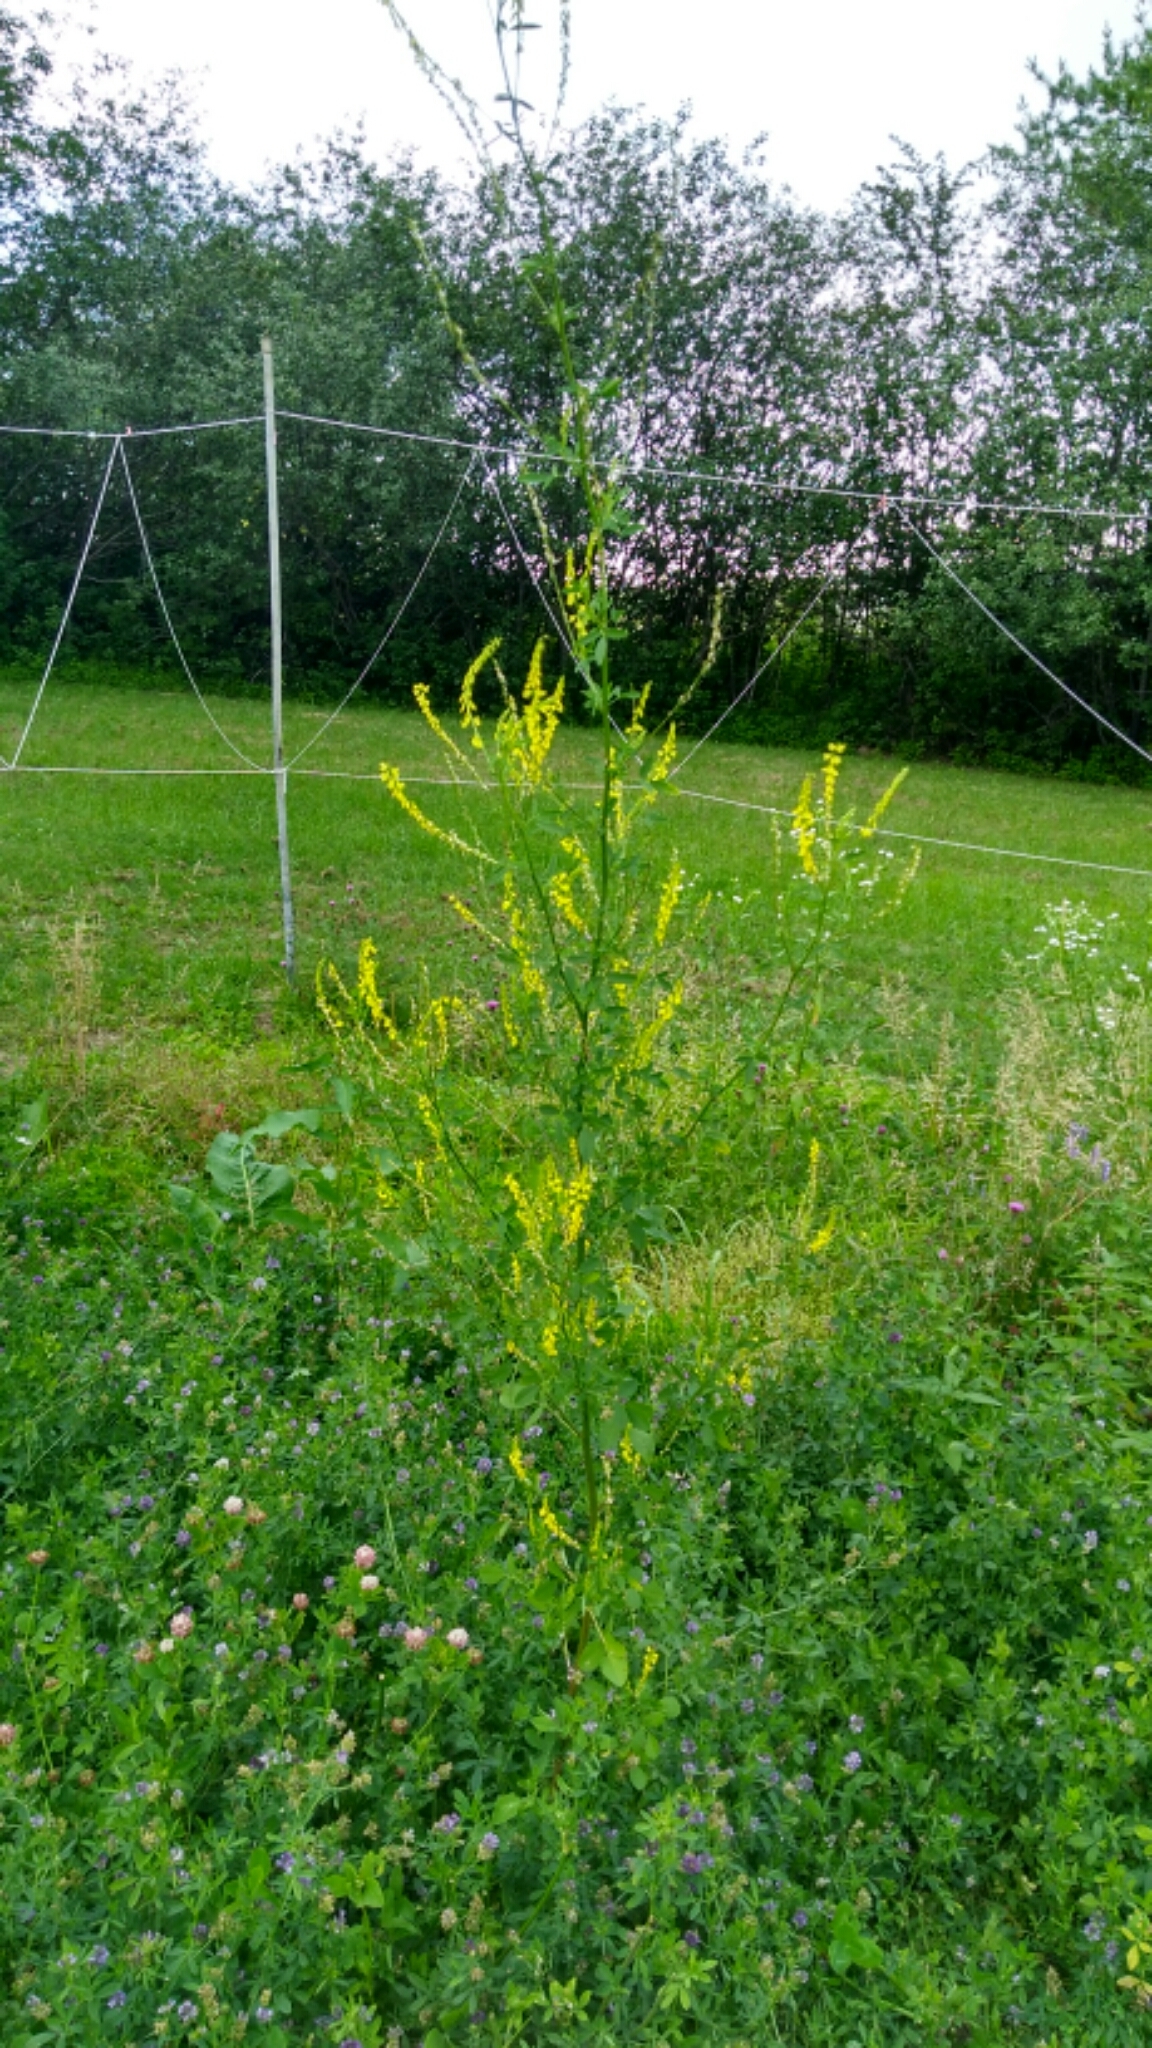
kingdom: Plantae
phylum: Tracheophyta
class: Magnoliopsida
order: Fabales
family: Fabaceae
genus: Melilotus
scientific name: Melilotus officinalis
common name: Sweetclover
